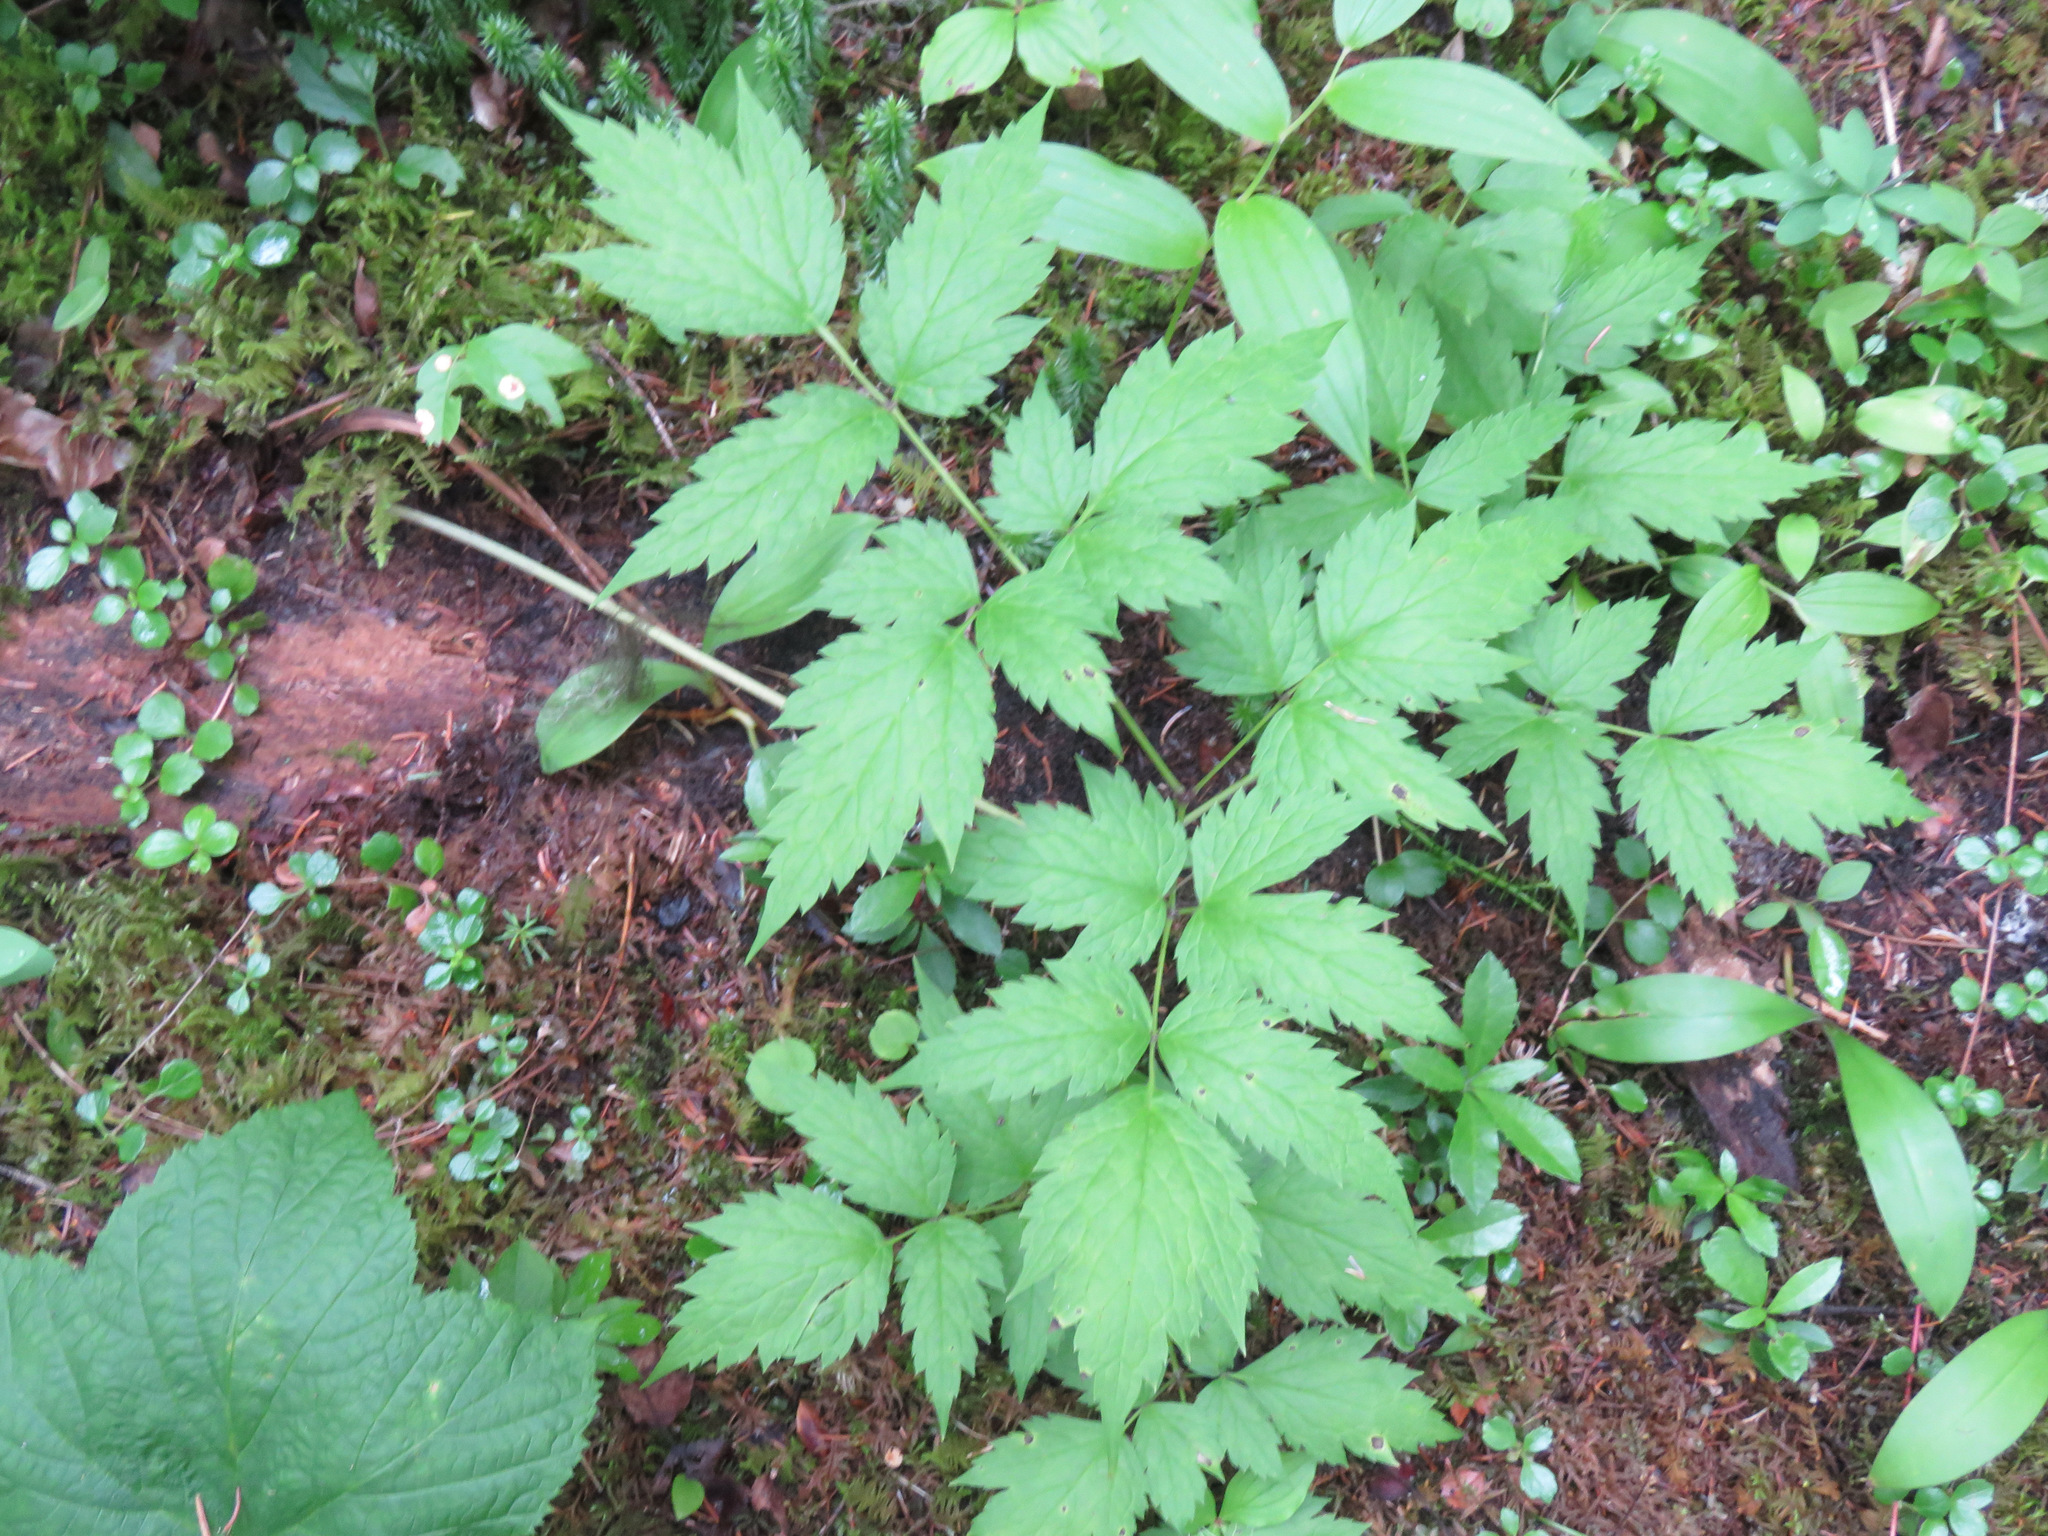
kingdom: Plantae
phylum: Tracheophyta
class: Magnoliopsida
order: Ranunculales
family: Ranunculaceae
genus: Actaea
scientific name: Actaea rubra
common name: Red baneberry
